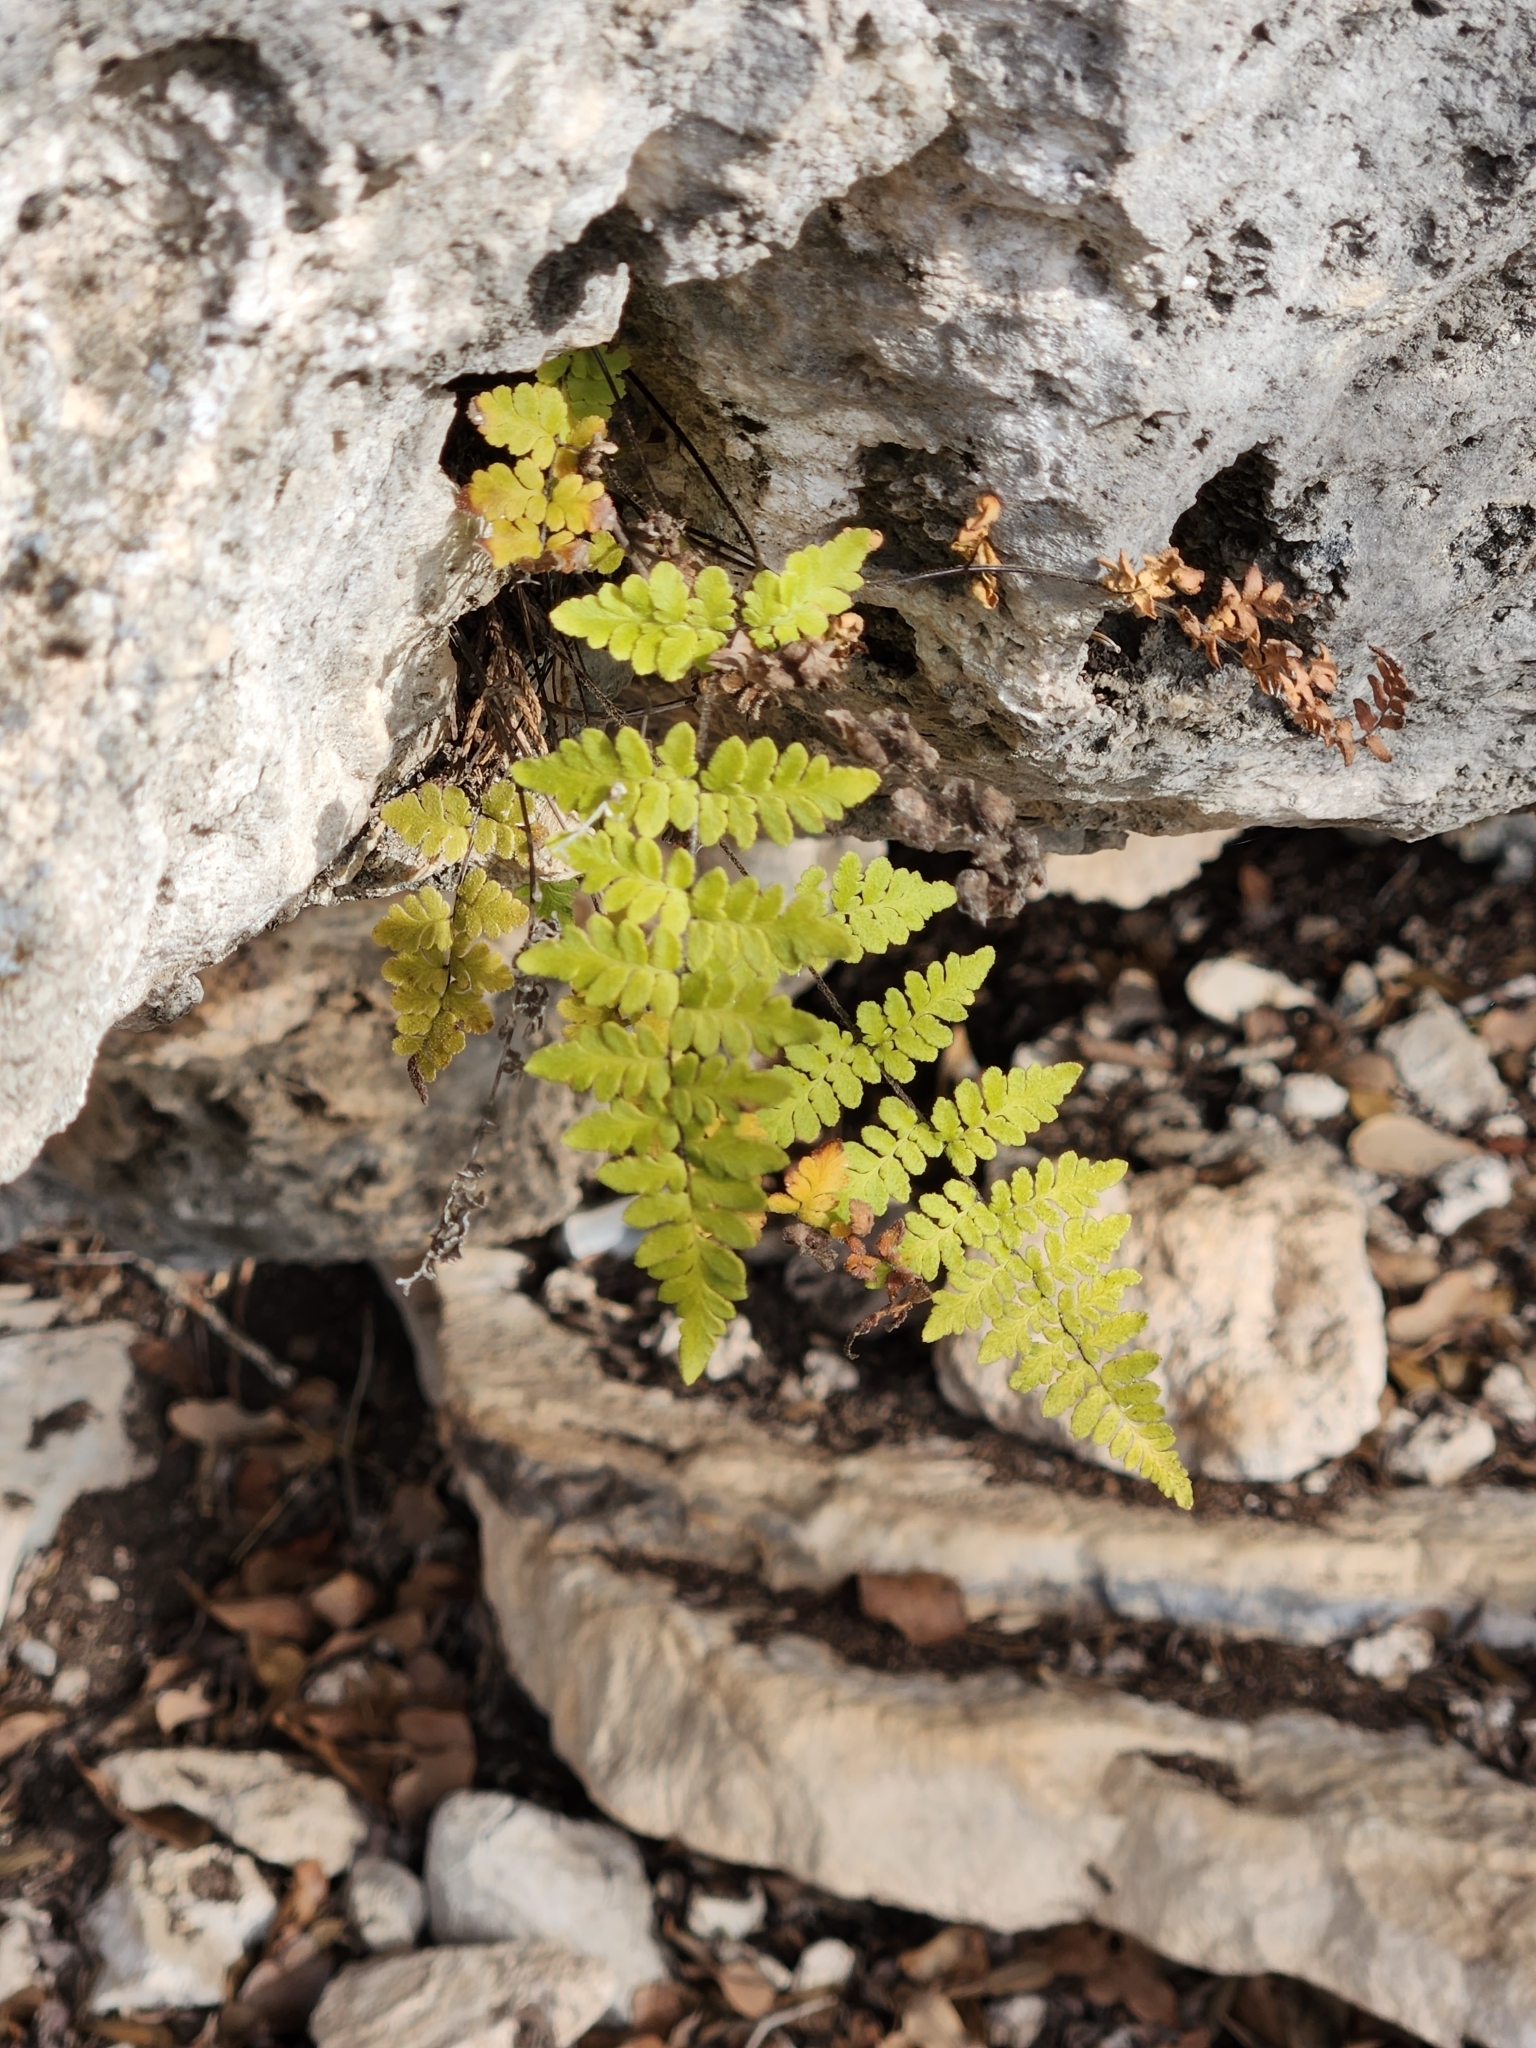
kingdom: Plantae
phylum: Tracheophyta
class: Polypodiopsida
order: Polypodiales
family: Pteridaceae
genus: Myriopteris
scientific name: Myriopteris alabamensis
